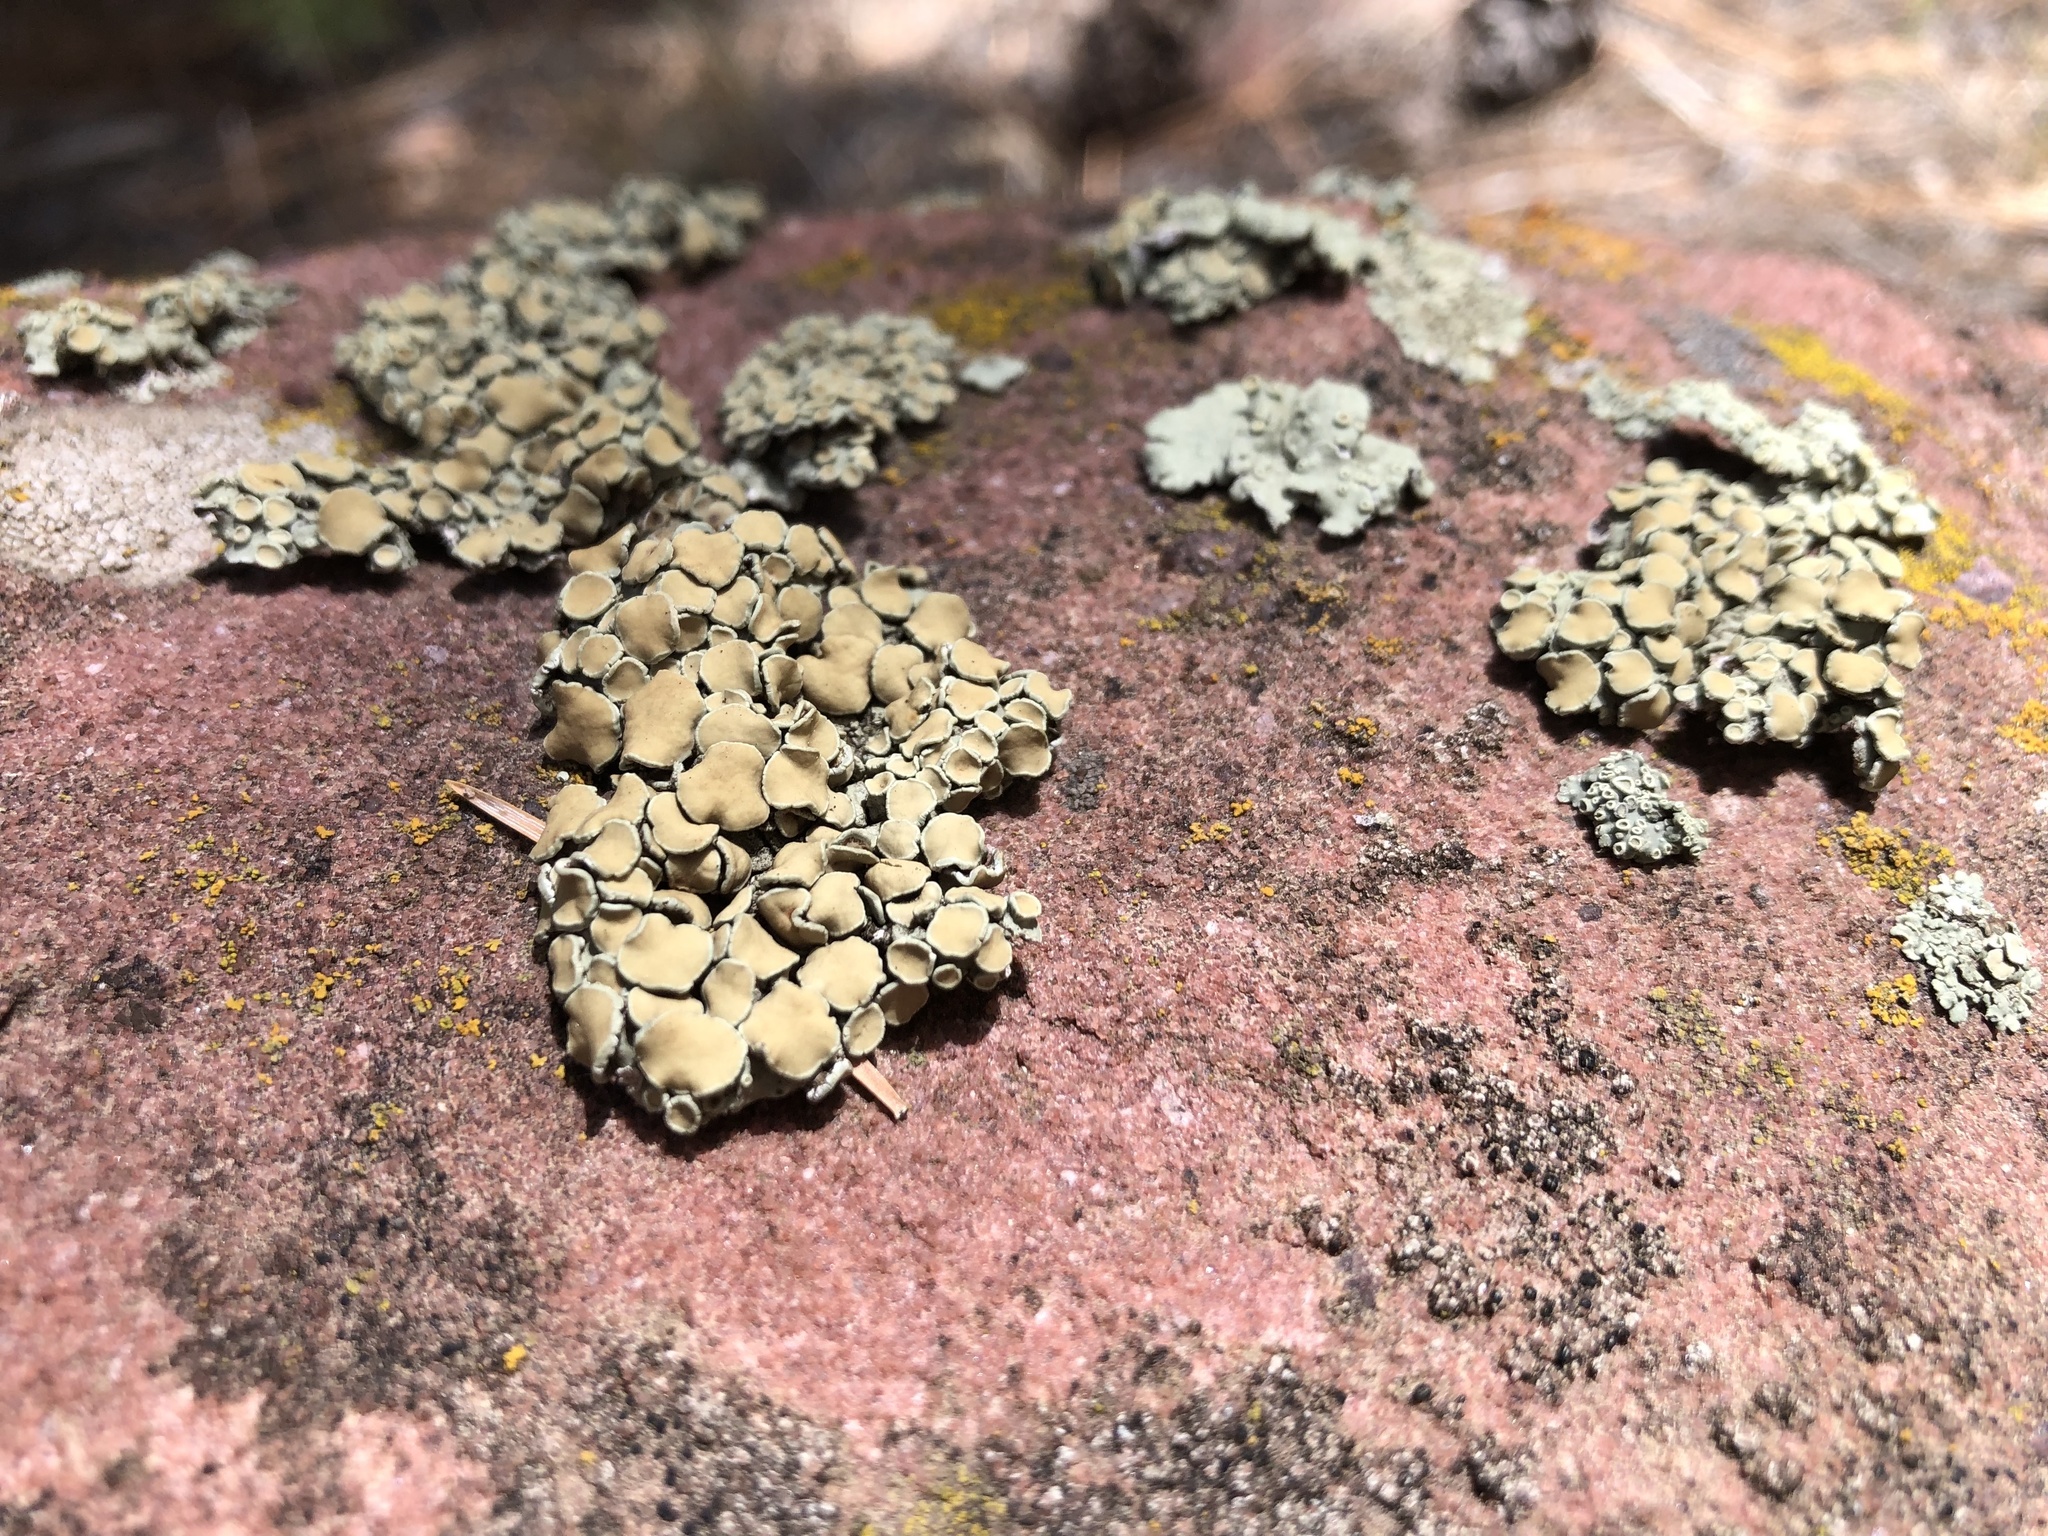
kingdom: Fungi
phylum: Ascomycota
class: Lecanoromycetes
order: Lecanorales
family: Lecanoraceae
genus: Omphalodina
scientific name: Omphalodina chrysoleuca
